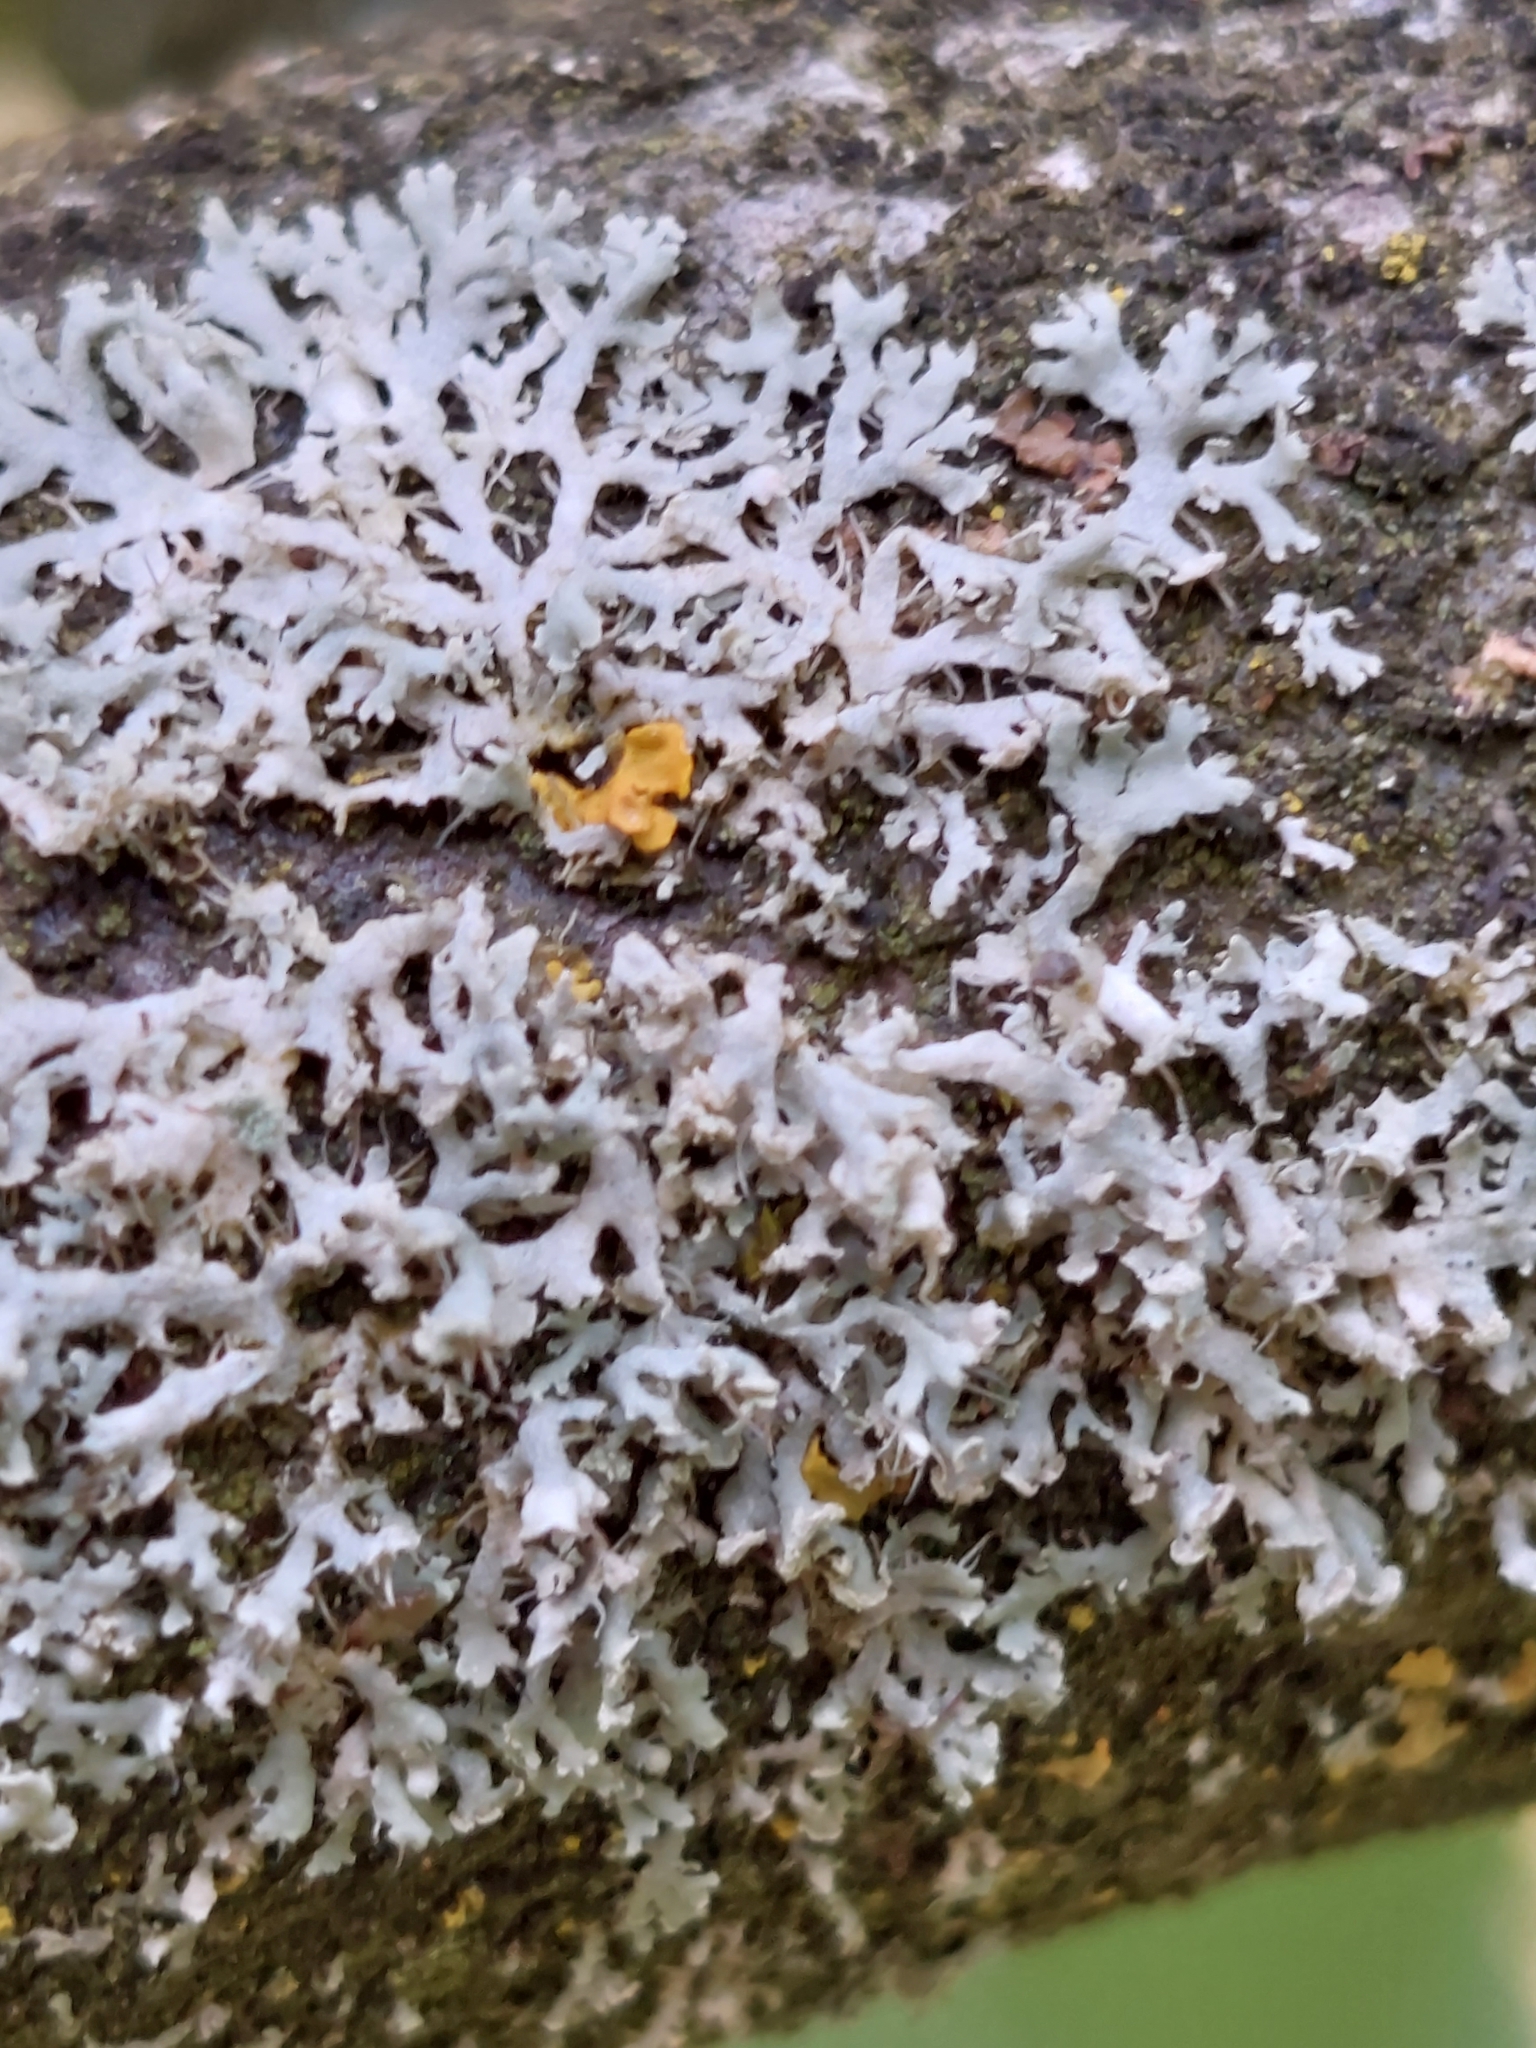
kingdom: Fungi
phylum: Ascomycota
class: Lecanoromycetes
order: Caliciales
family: Physciaceae
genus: Physcia
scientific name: Physcia tenella
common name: Fringed rosette lichen
